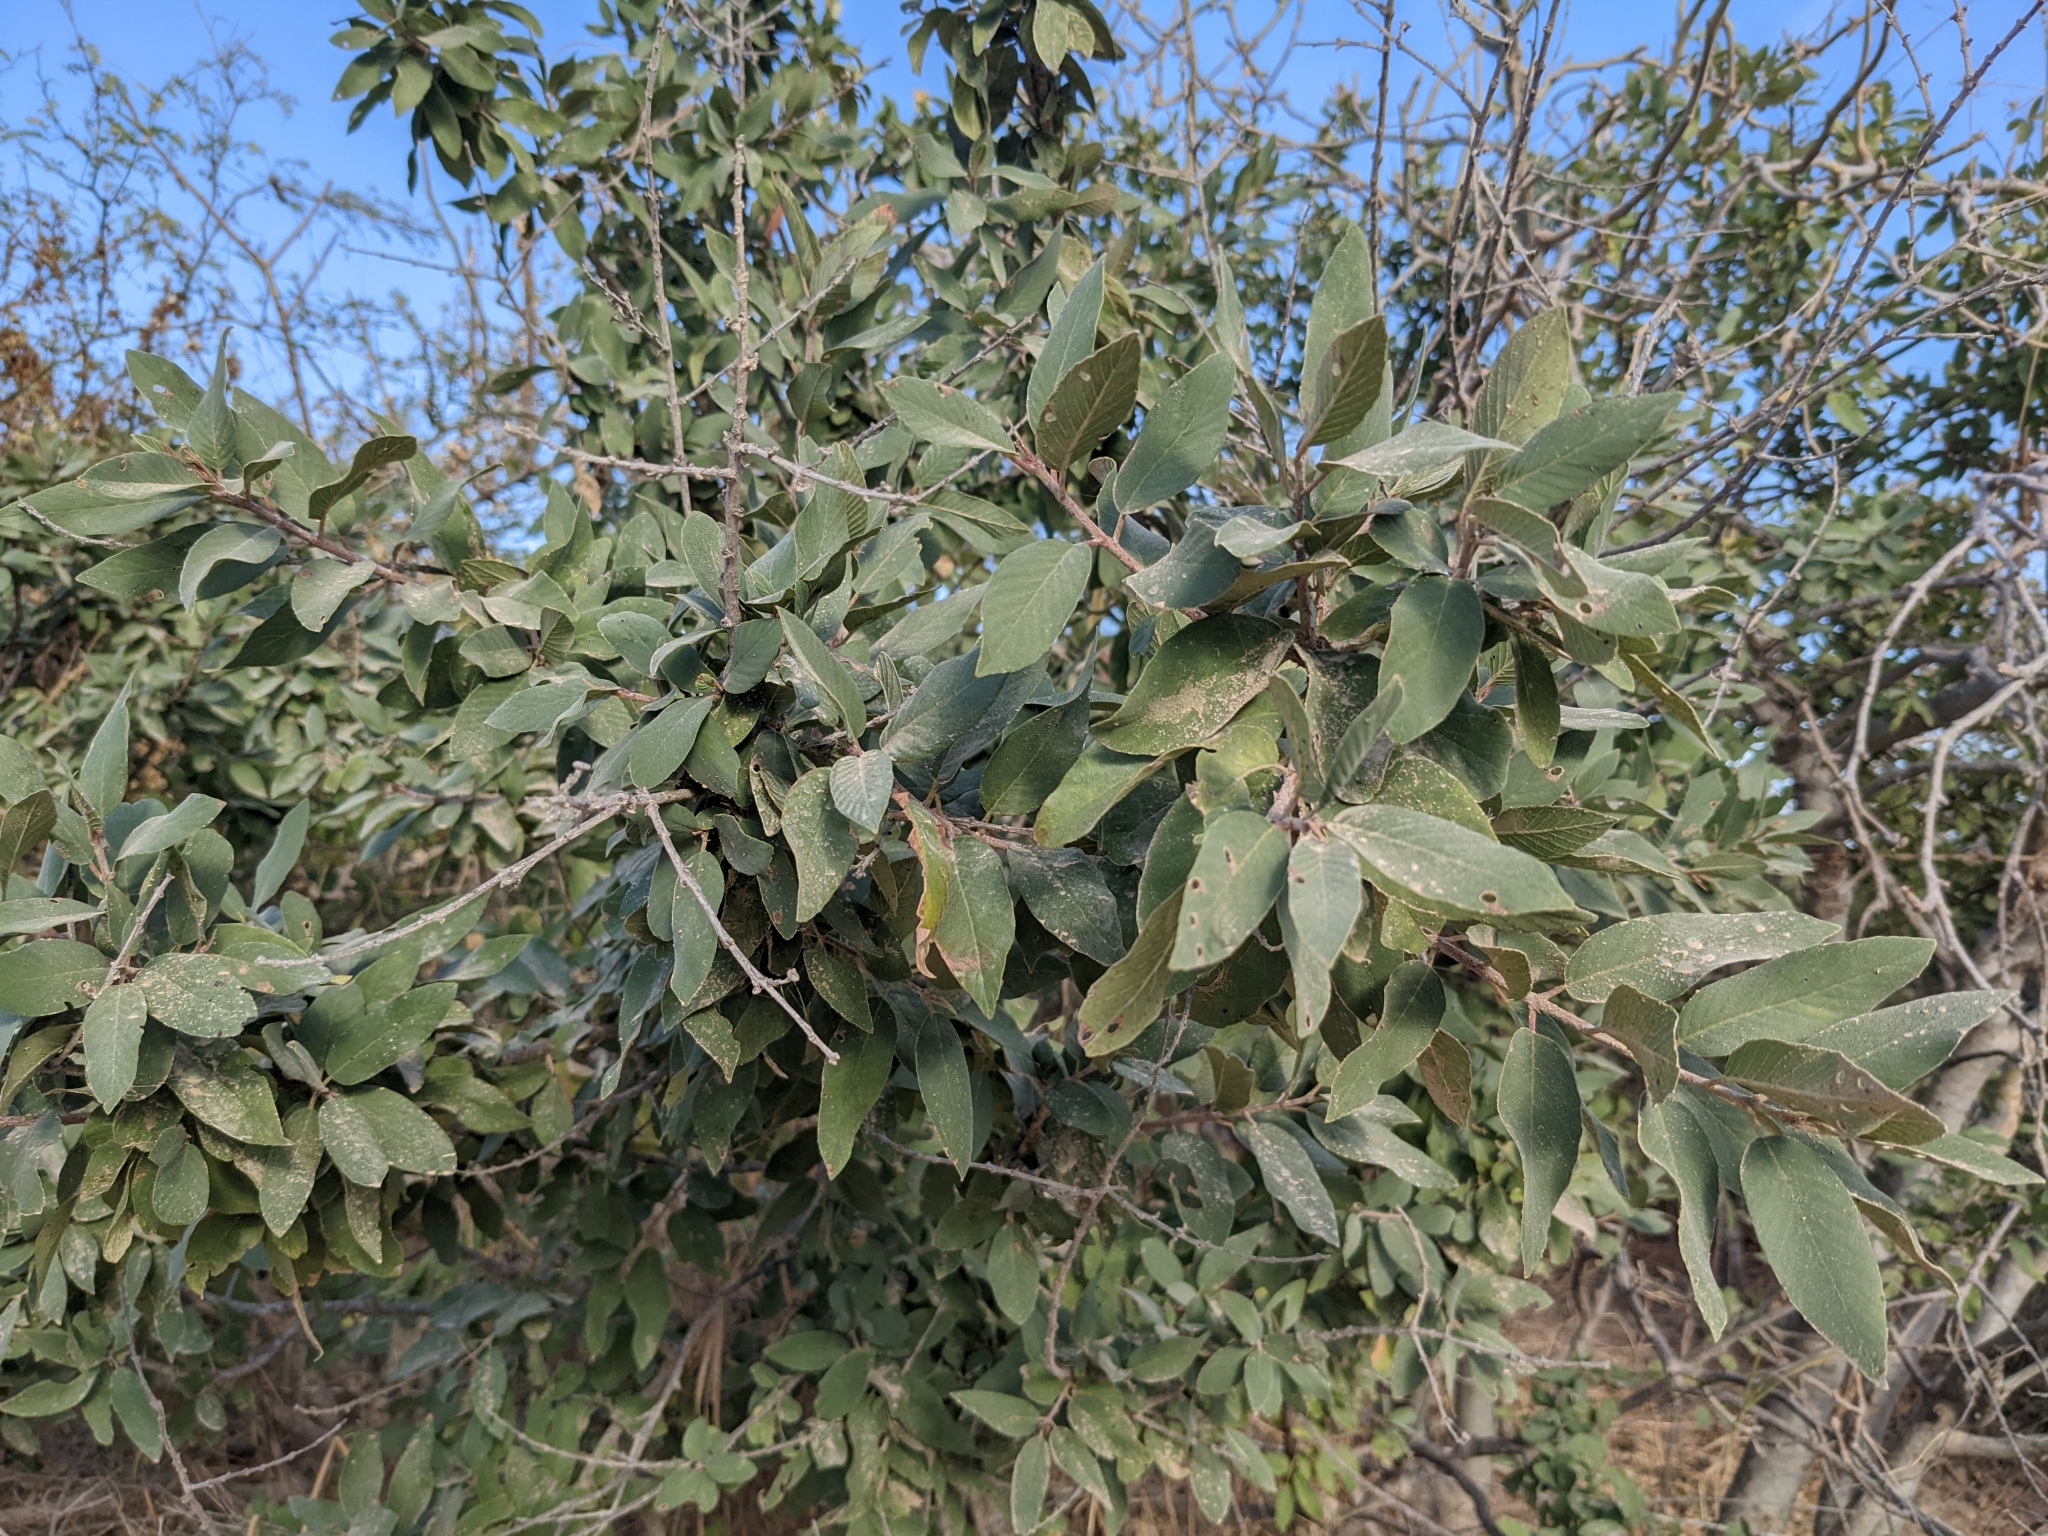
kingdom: Plantae
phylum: Tracheophyta
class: Magnoliopsida
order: Rosales
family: Rhamnaceae
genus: Karwinskia
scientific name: Karwinskia humboldtiana
